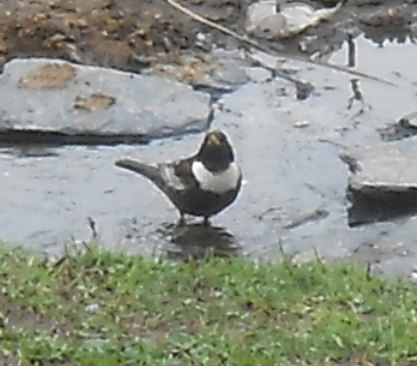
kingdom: Animalia
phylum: Chordata
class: Aves
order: Passeriformes
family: Turdidae
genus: Turdus
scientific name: Turdus torquatus
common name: Ring ouzel
